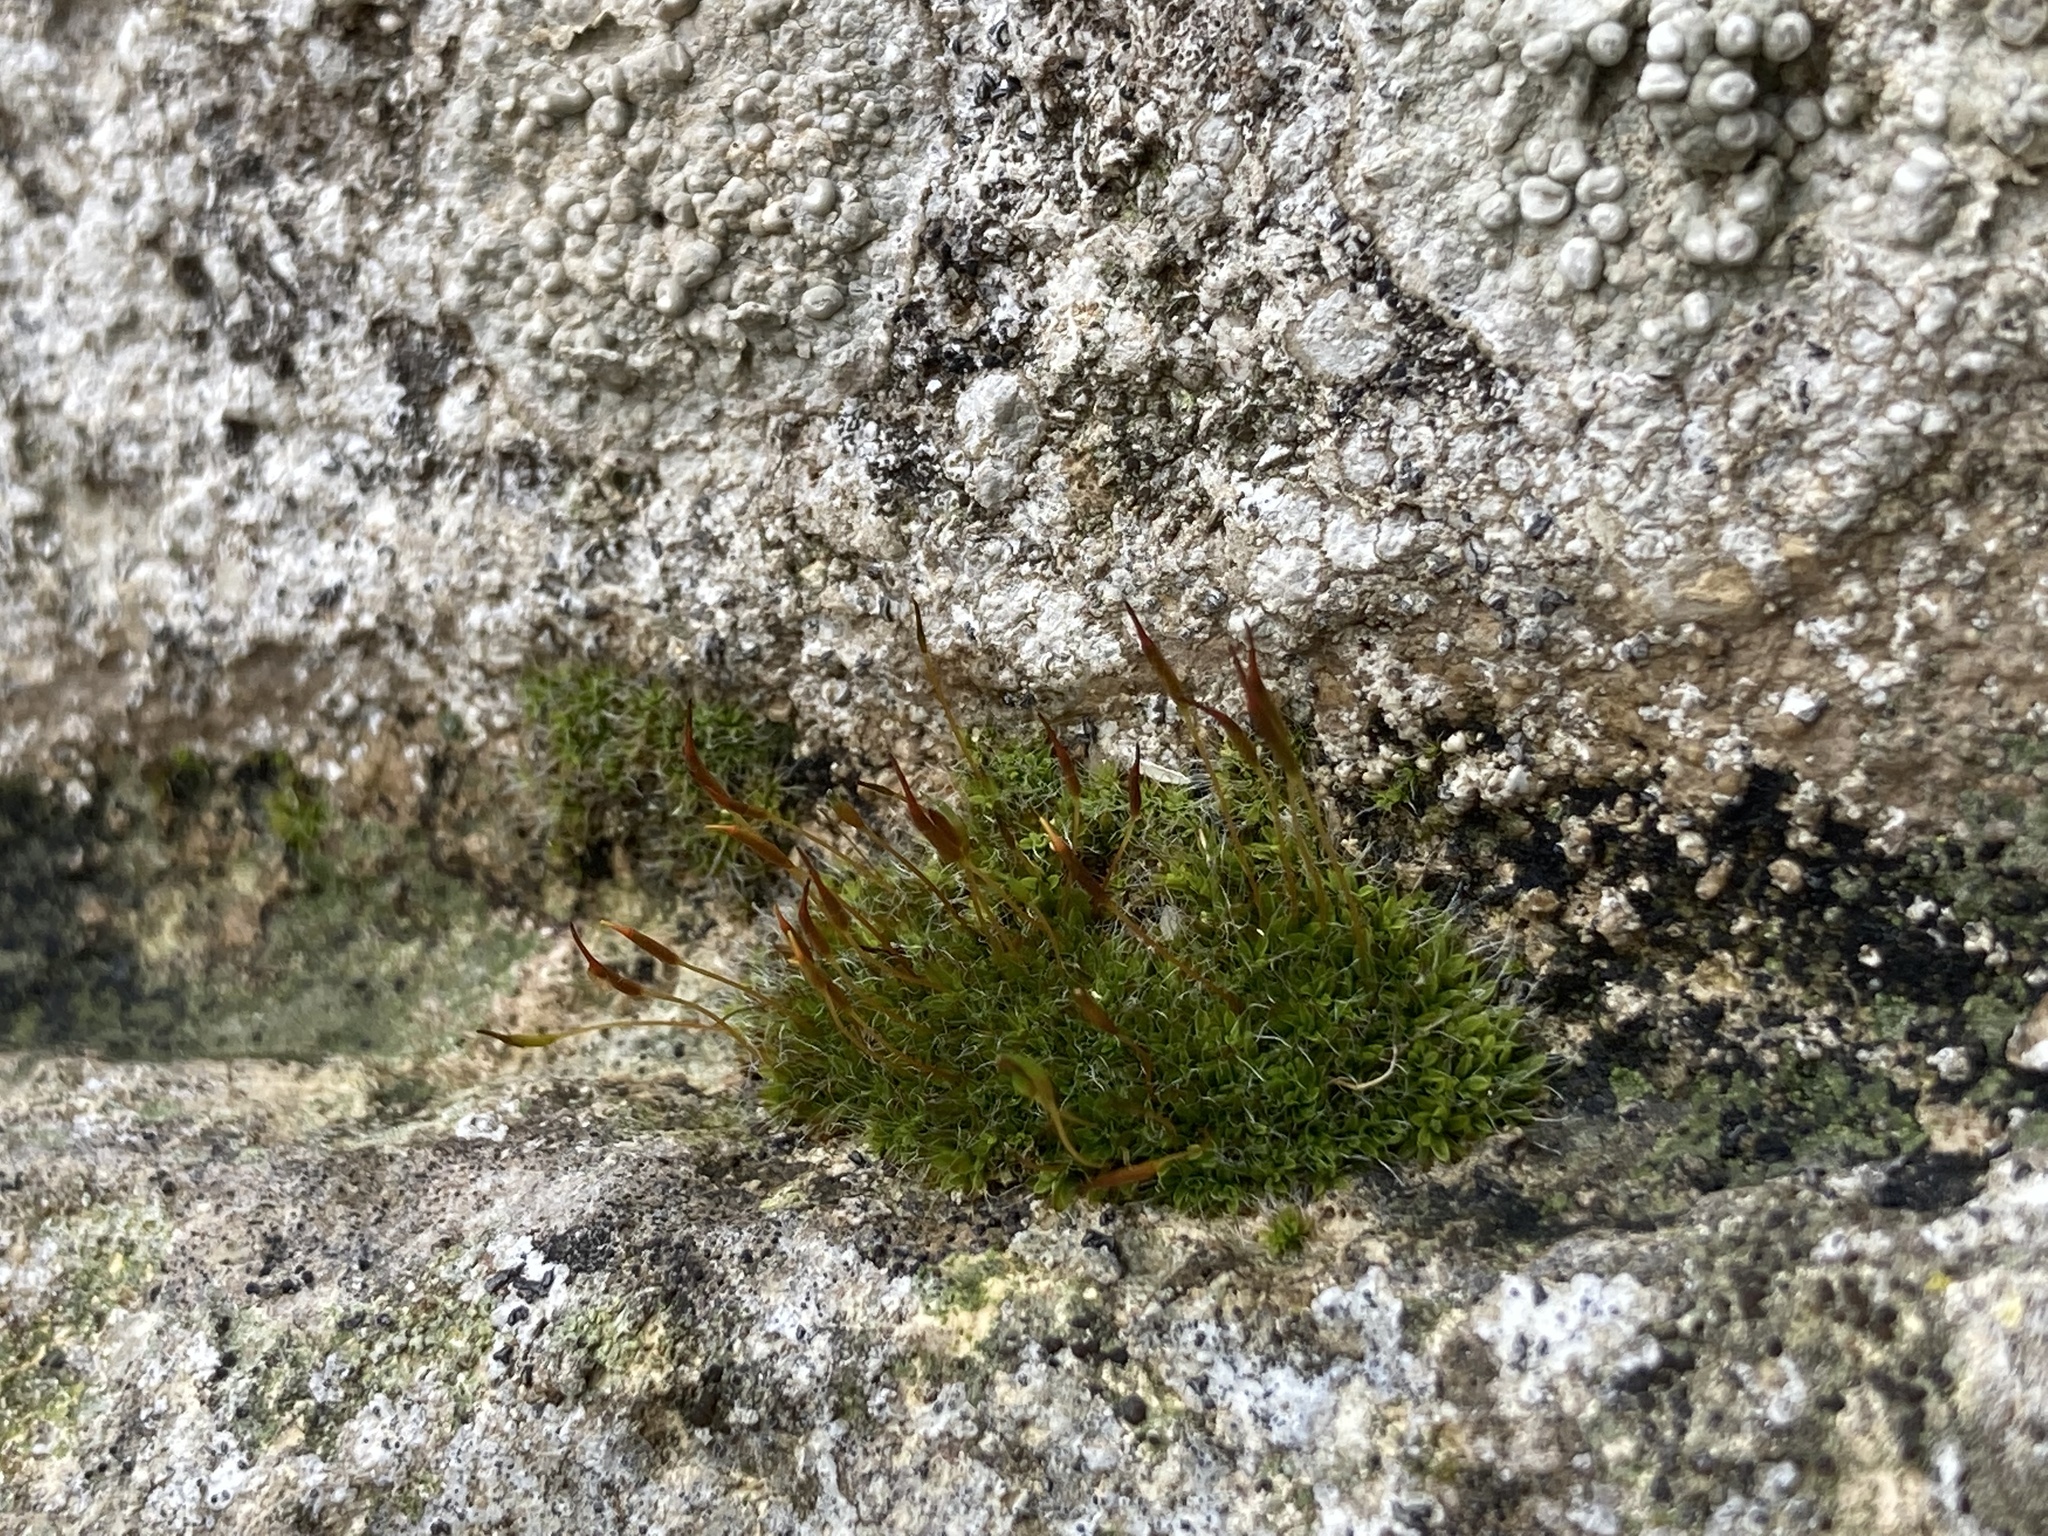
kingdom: Plantae
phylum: Bryophyta
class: Bryopsida
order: Pottiales
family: Pottiaceae
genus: Tortula
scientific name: Tortula muralis
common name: Wall screw-moss
